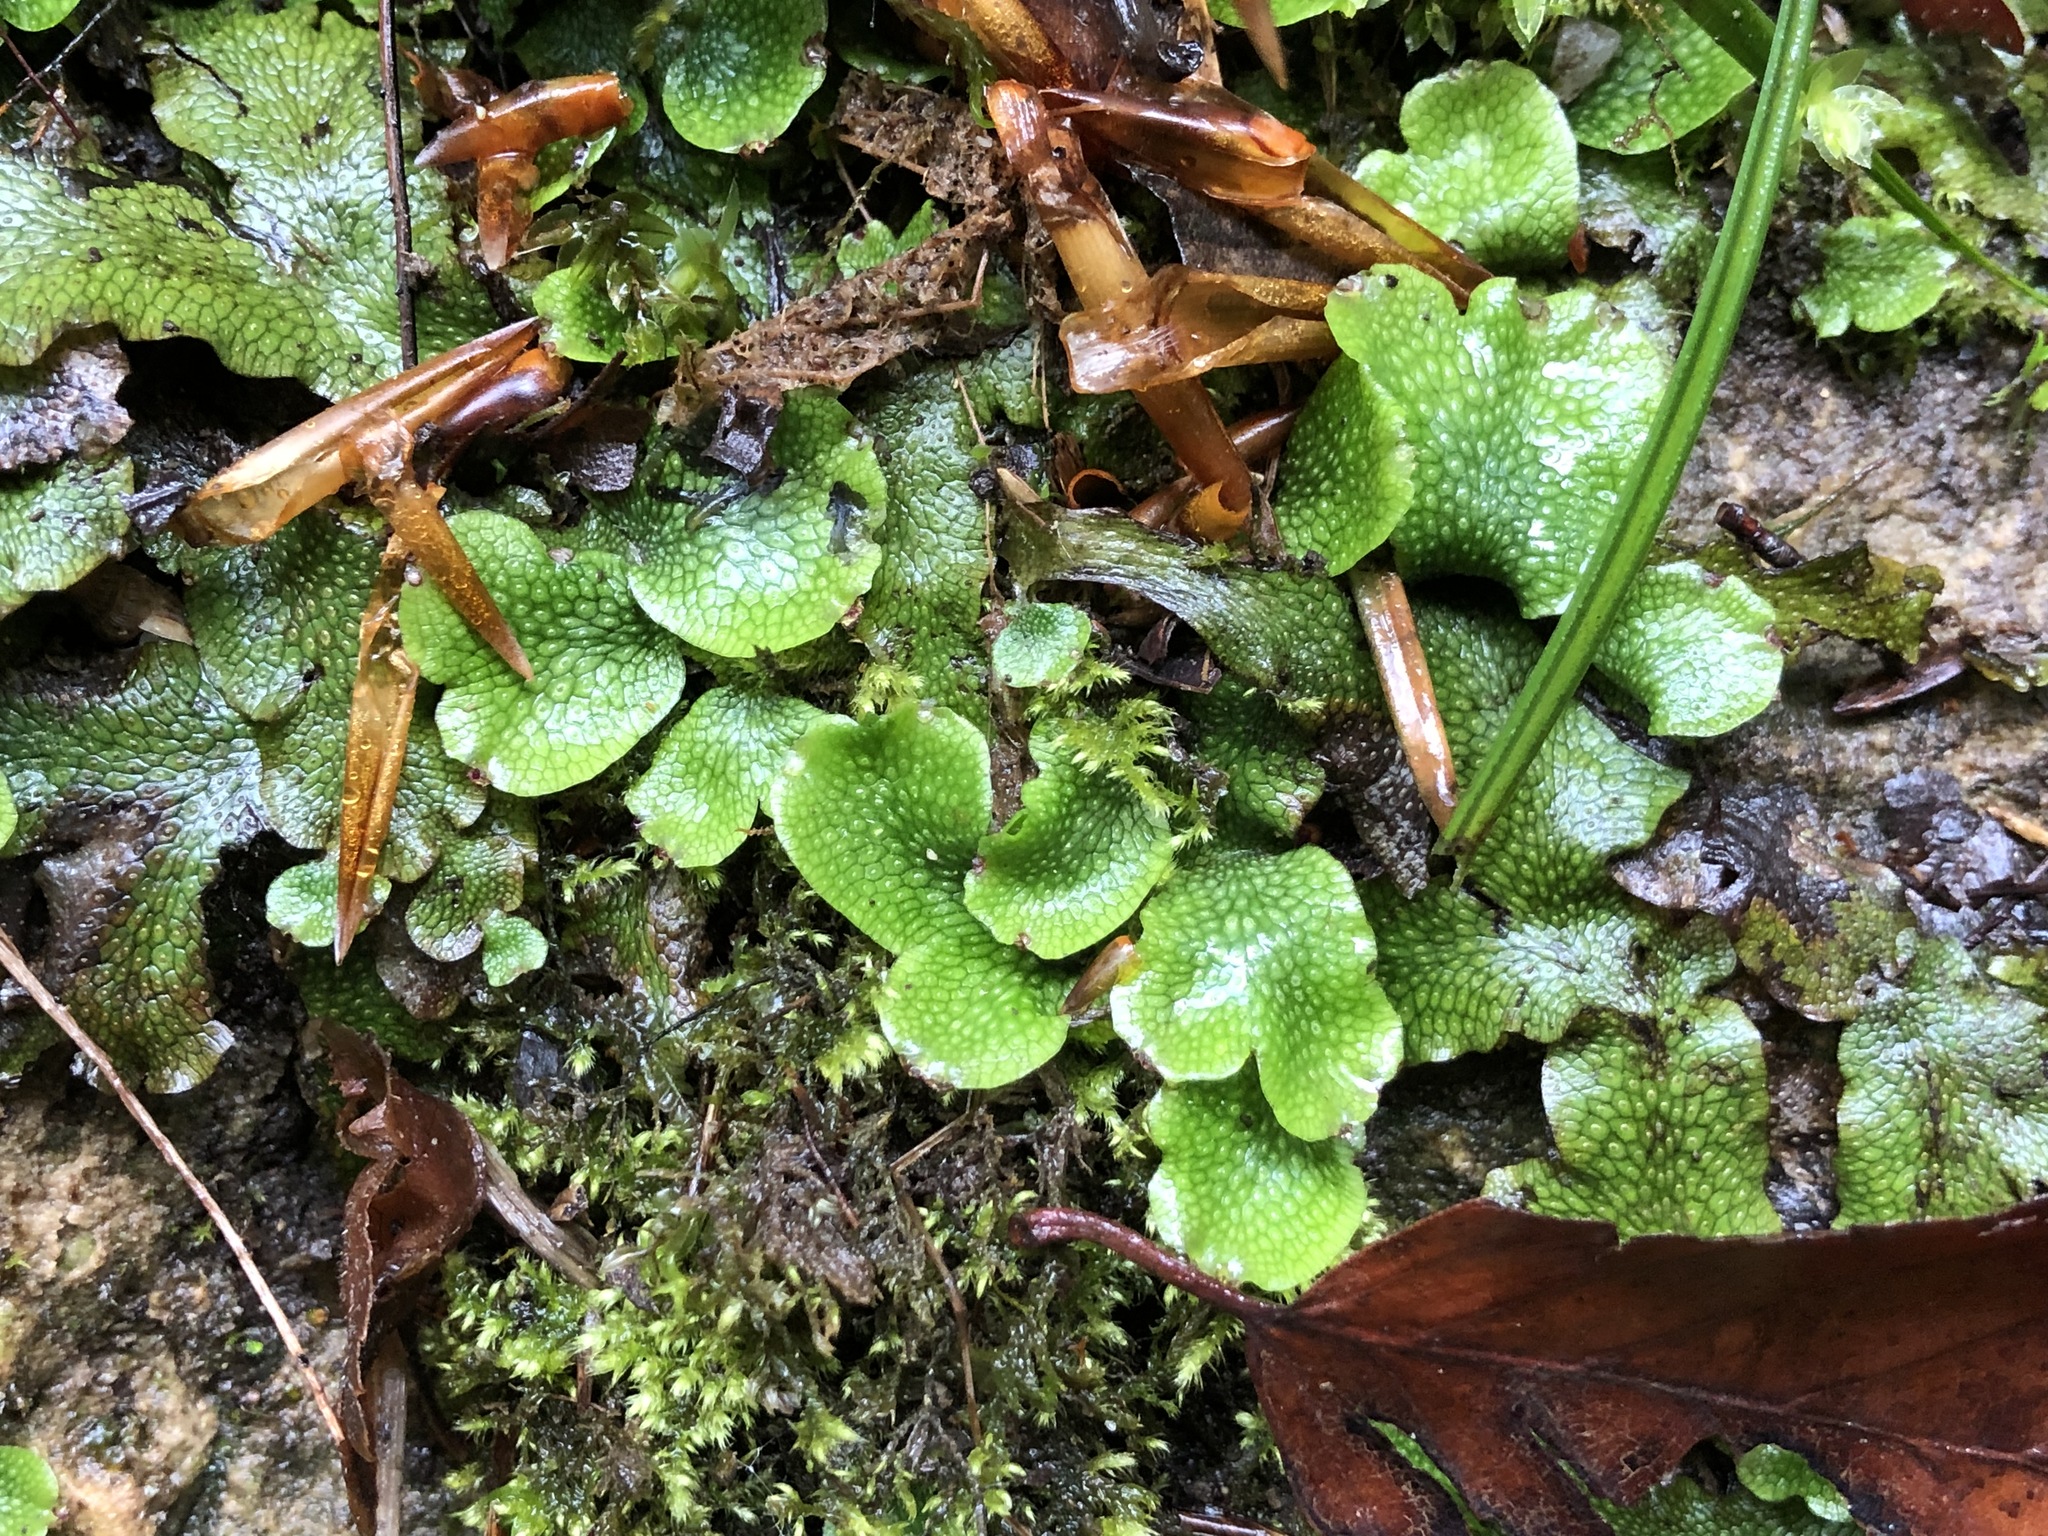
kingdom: Plantae
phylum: Marchantiophyta
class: Marchantiopsida
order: Marchantiales
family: Conocephalaceae
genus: Conocephalum
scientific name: Conocephalum conicum
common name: Great scented liverwort
